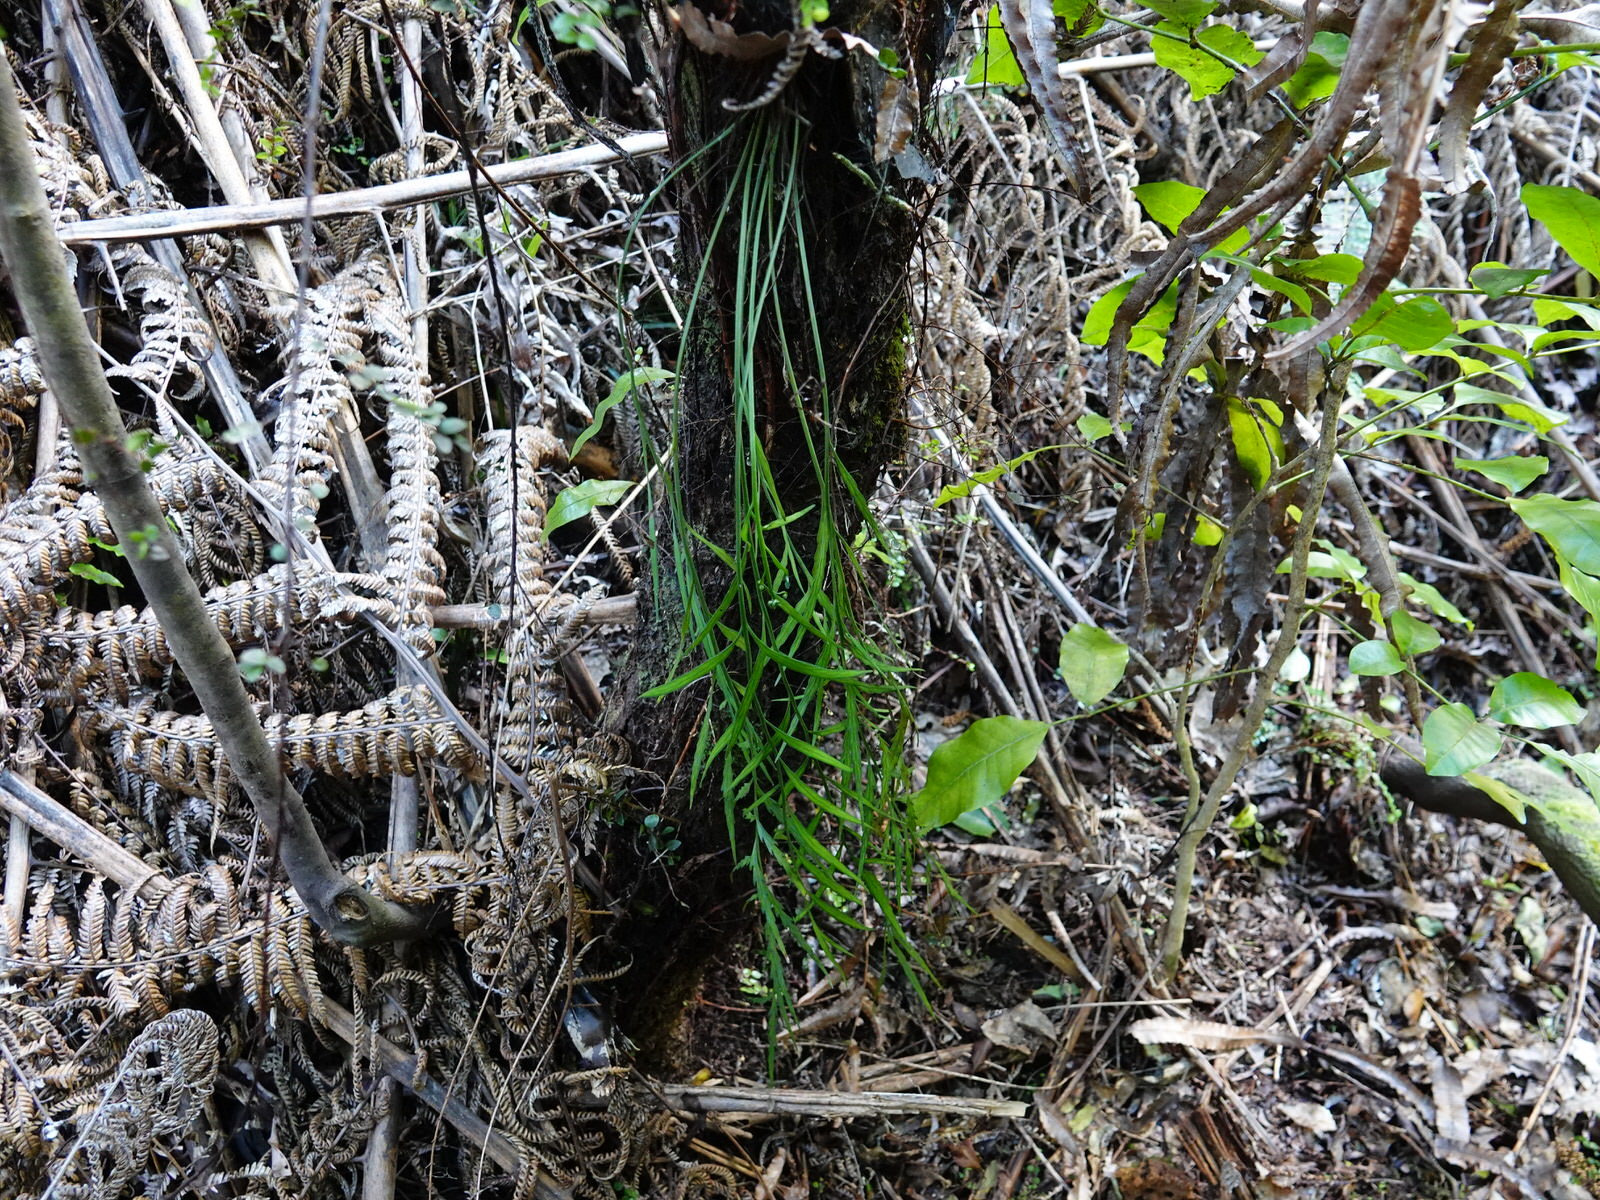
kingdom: Plantae
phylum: Tracheophyta
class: Polypodiopsida
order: Polypodiales
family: Aspleniaceae
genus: Asplenium
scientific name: Asplenium flaccidum
